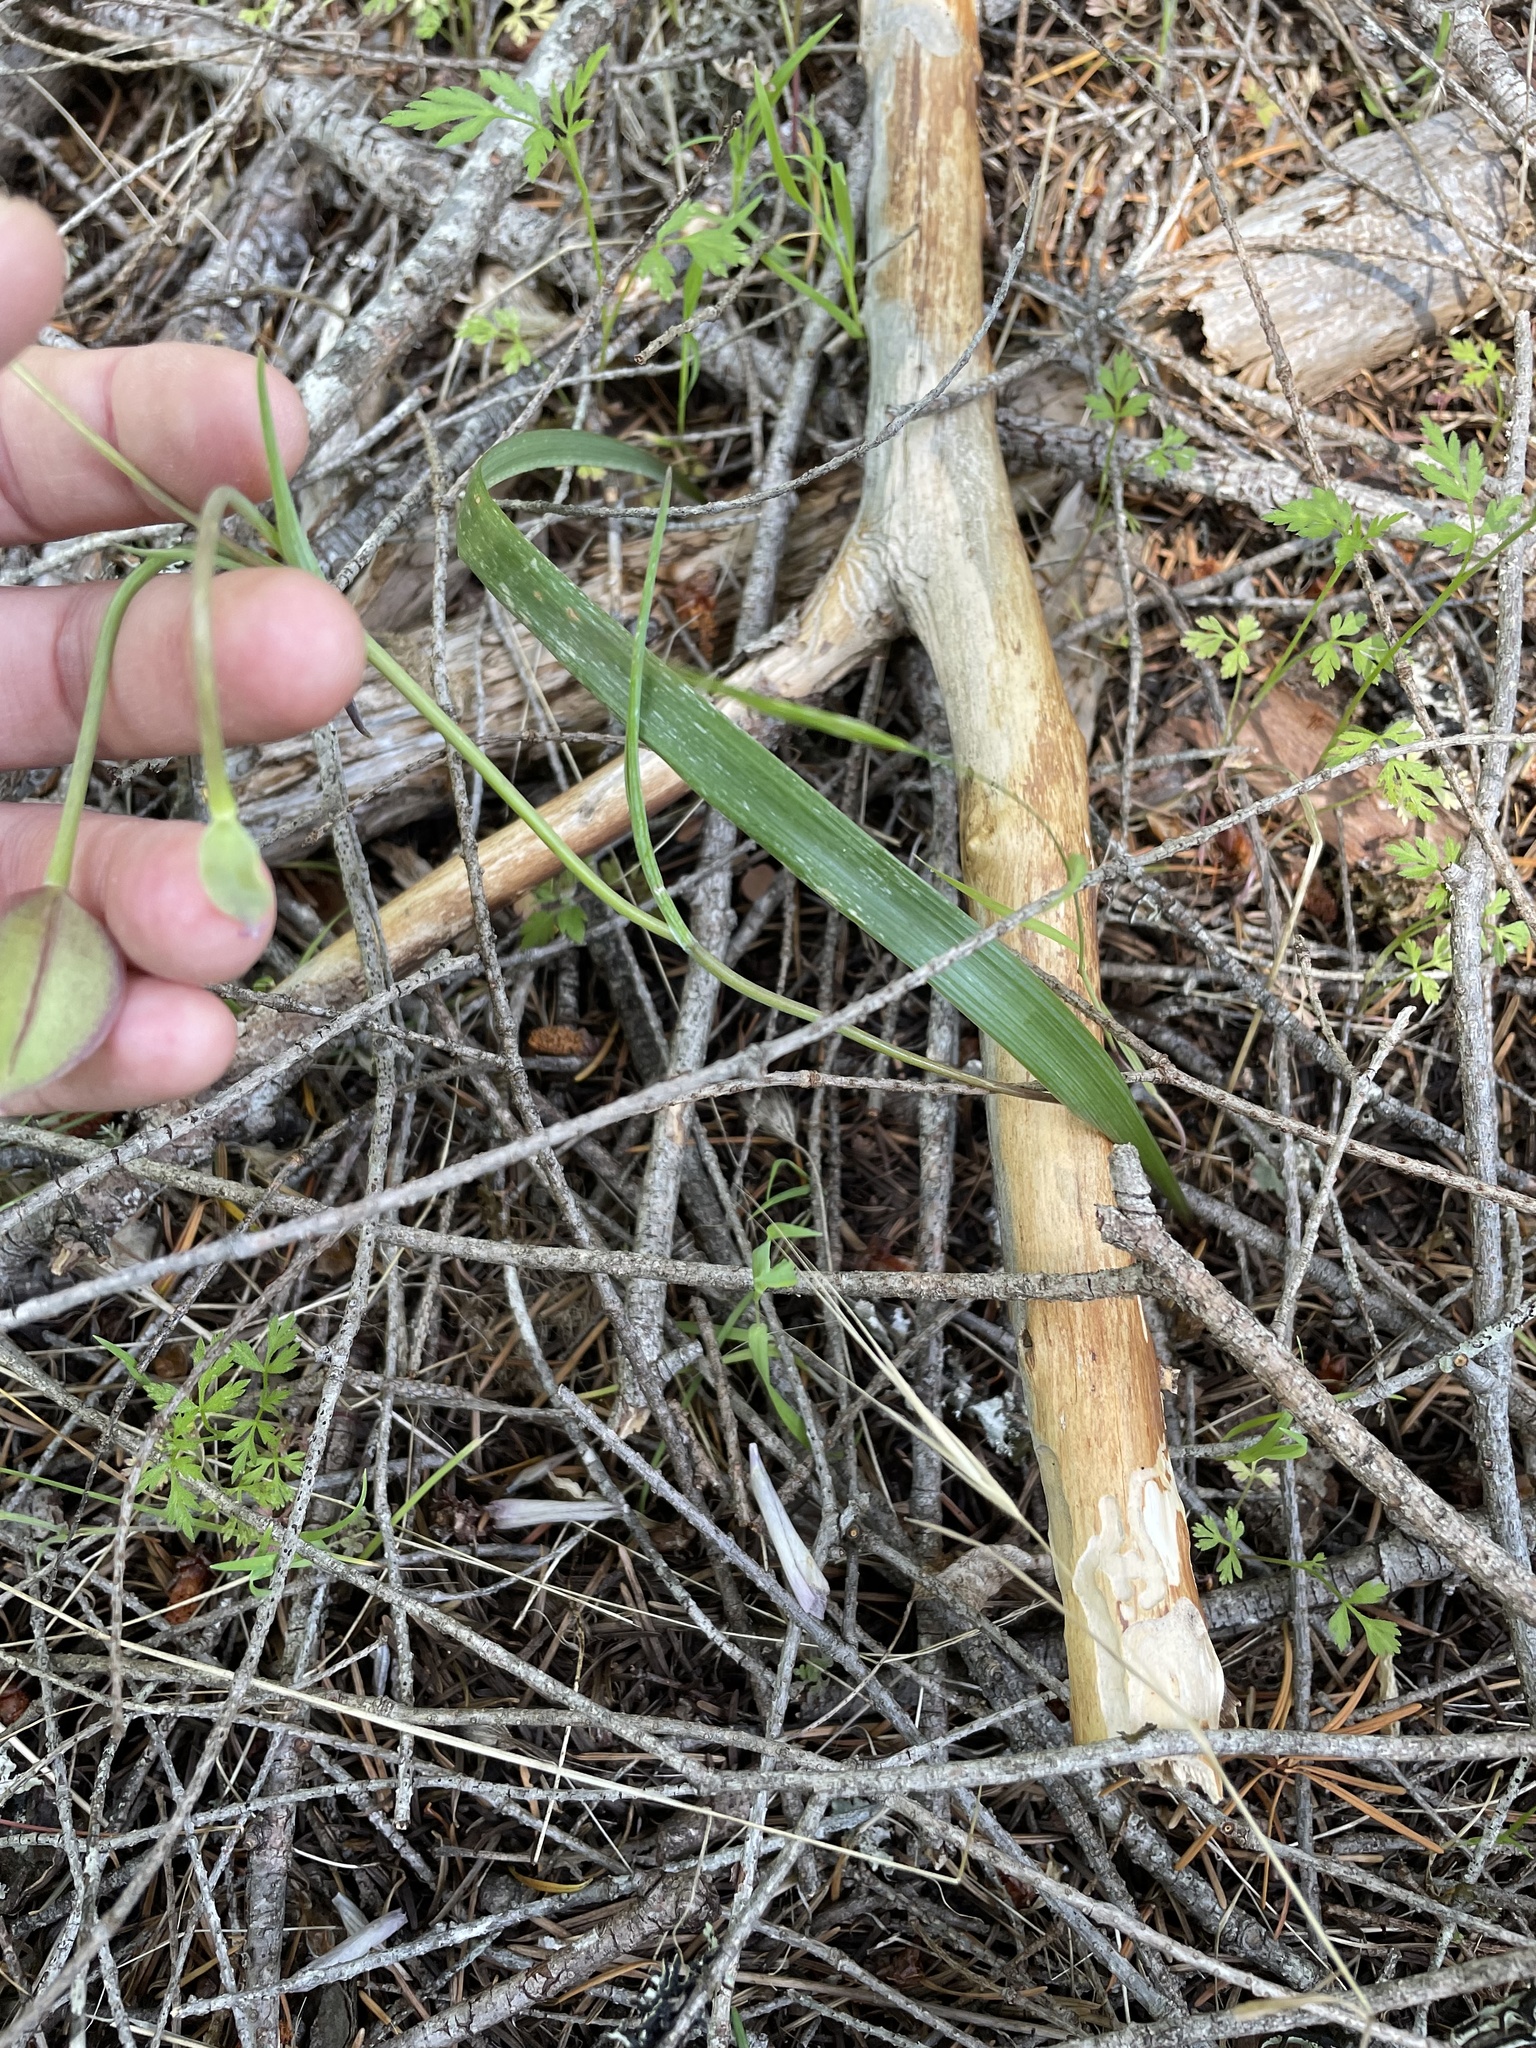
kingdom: Plantae
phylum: Tracheophyta
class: Liliopsida
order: Liliales
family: Liliaceae
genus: Calochortus
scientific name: Calochortus tolmiei
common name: Pussy-ears
